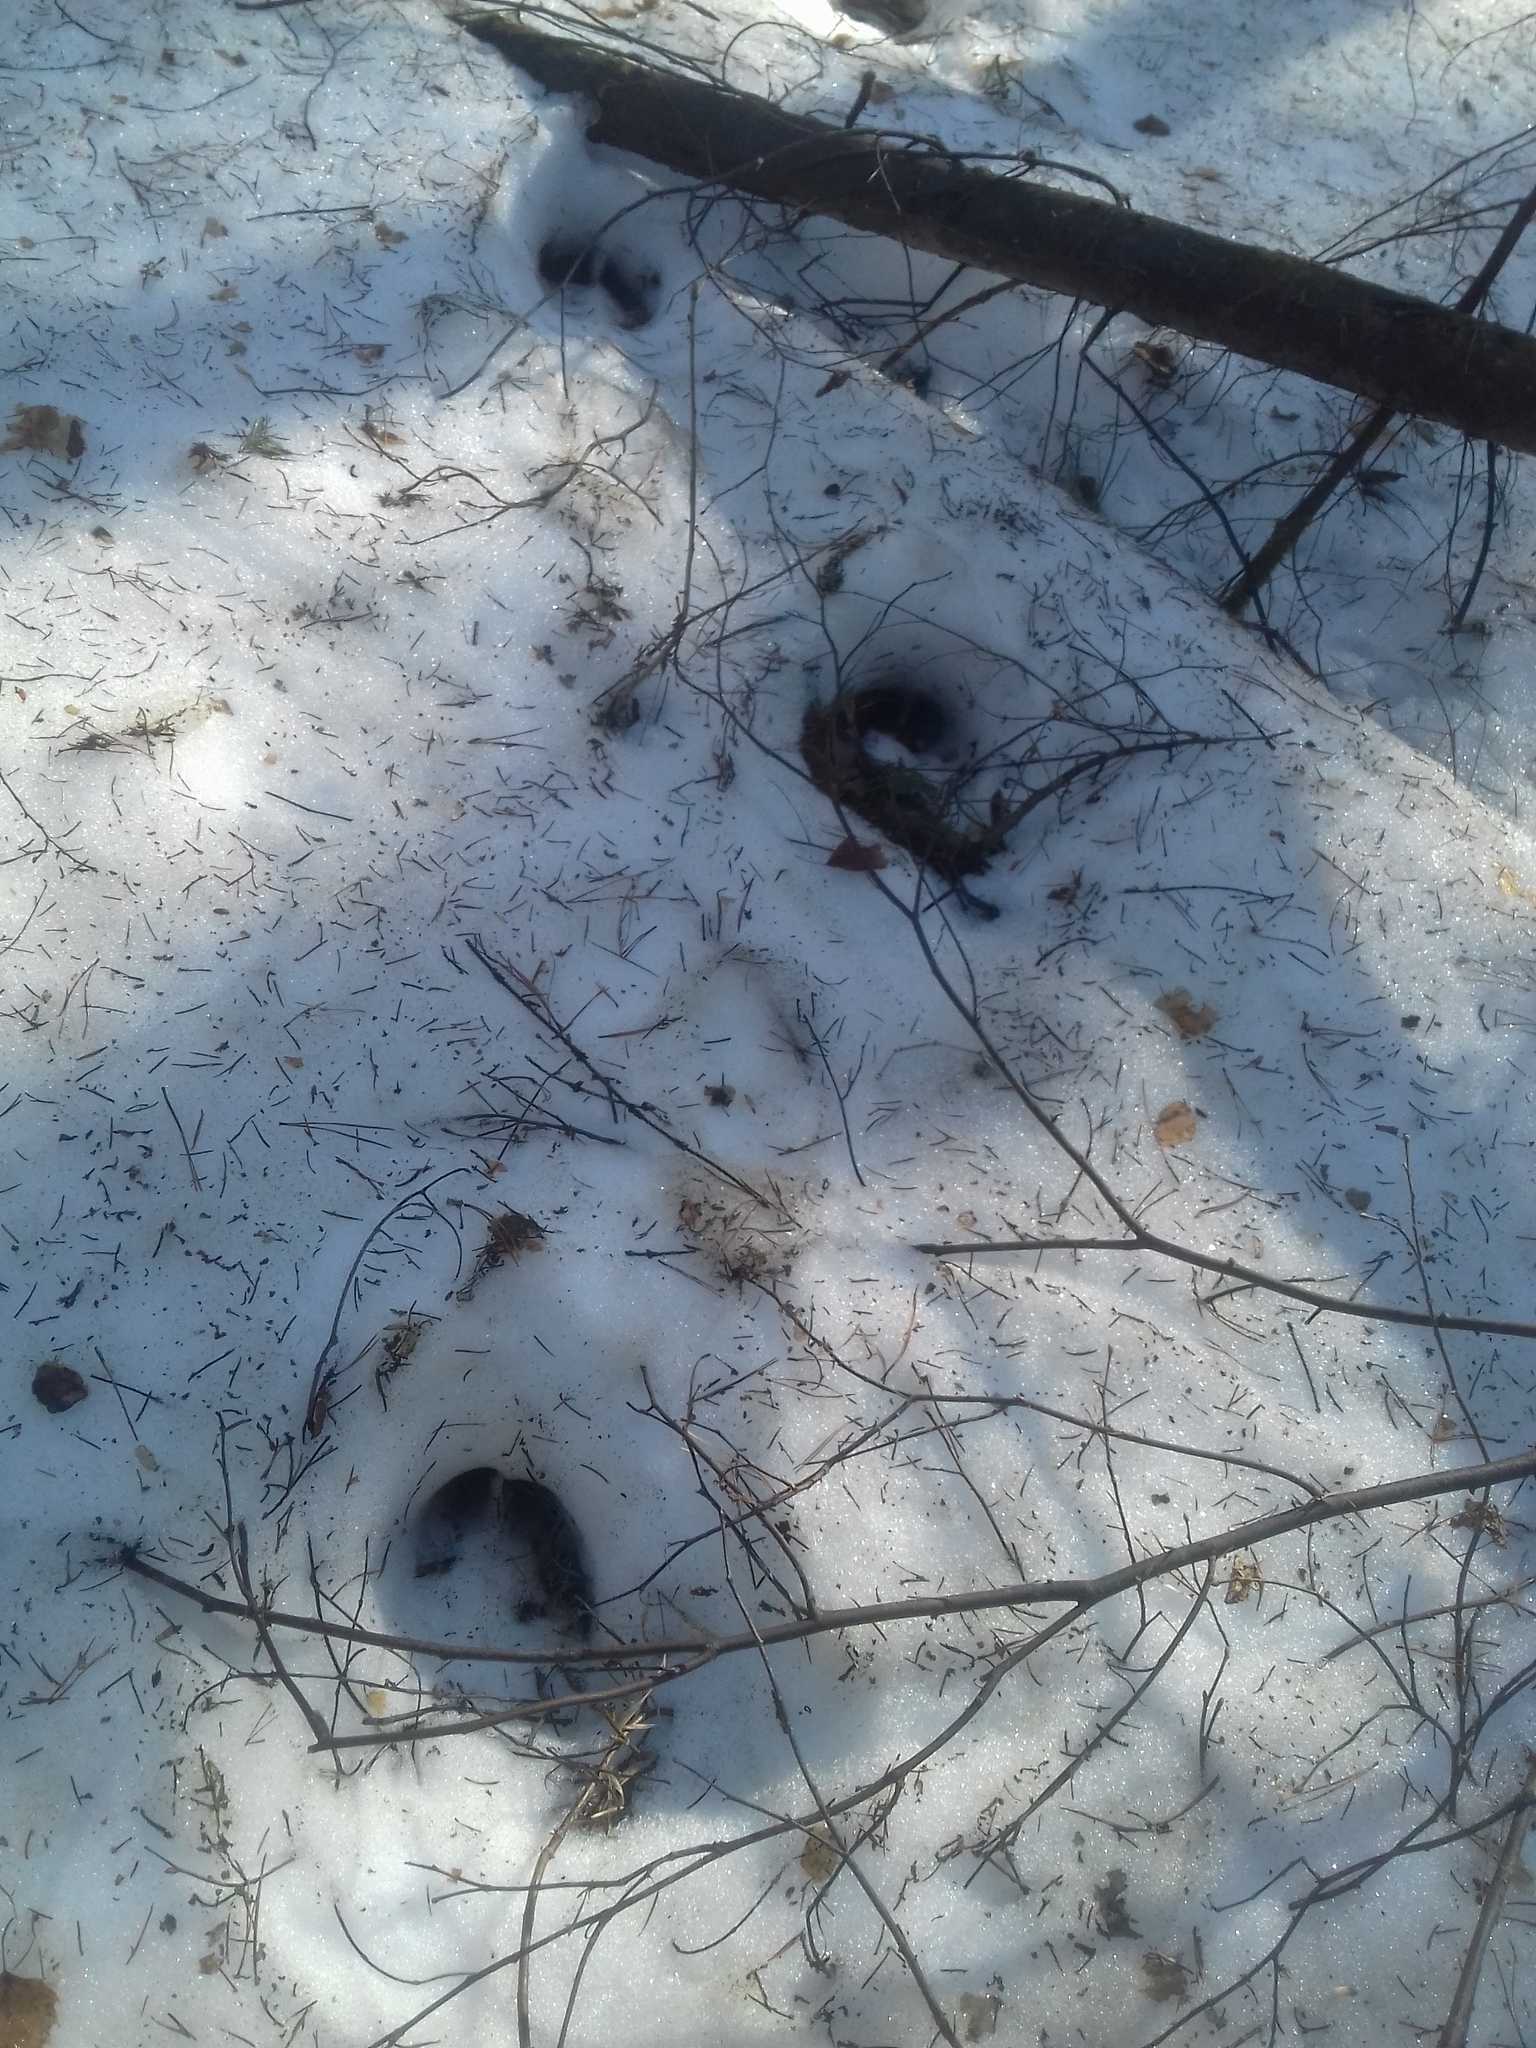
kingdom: Animalia
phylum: Chordata
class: Mammalia
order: Artiodactyla
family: Cervidae
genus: Alces
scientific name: Alces alces
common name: Moose
